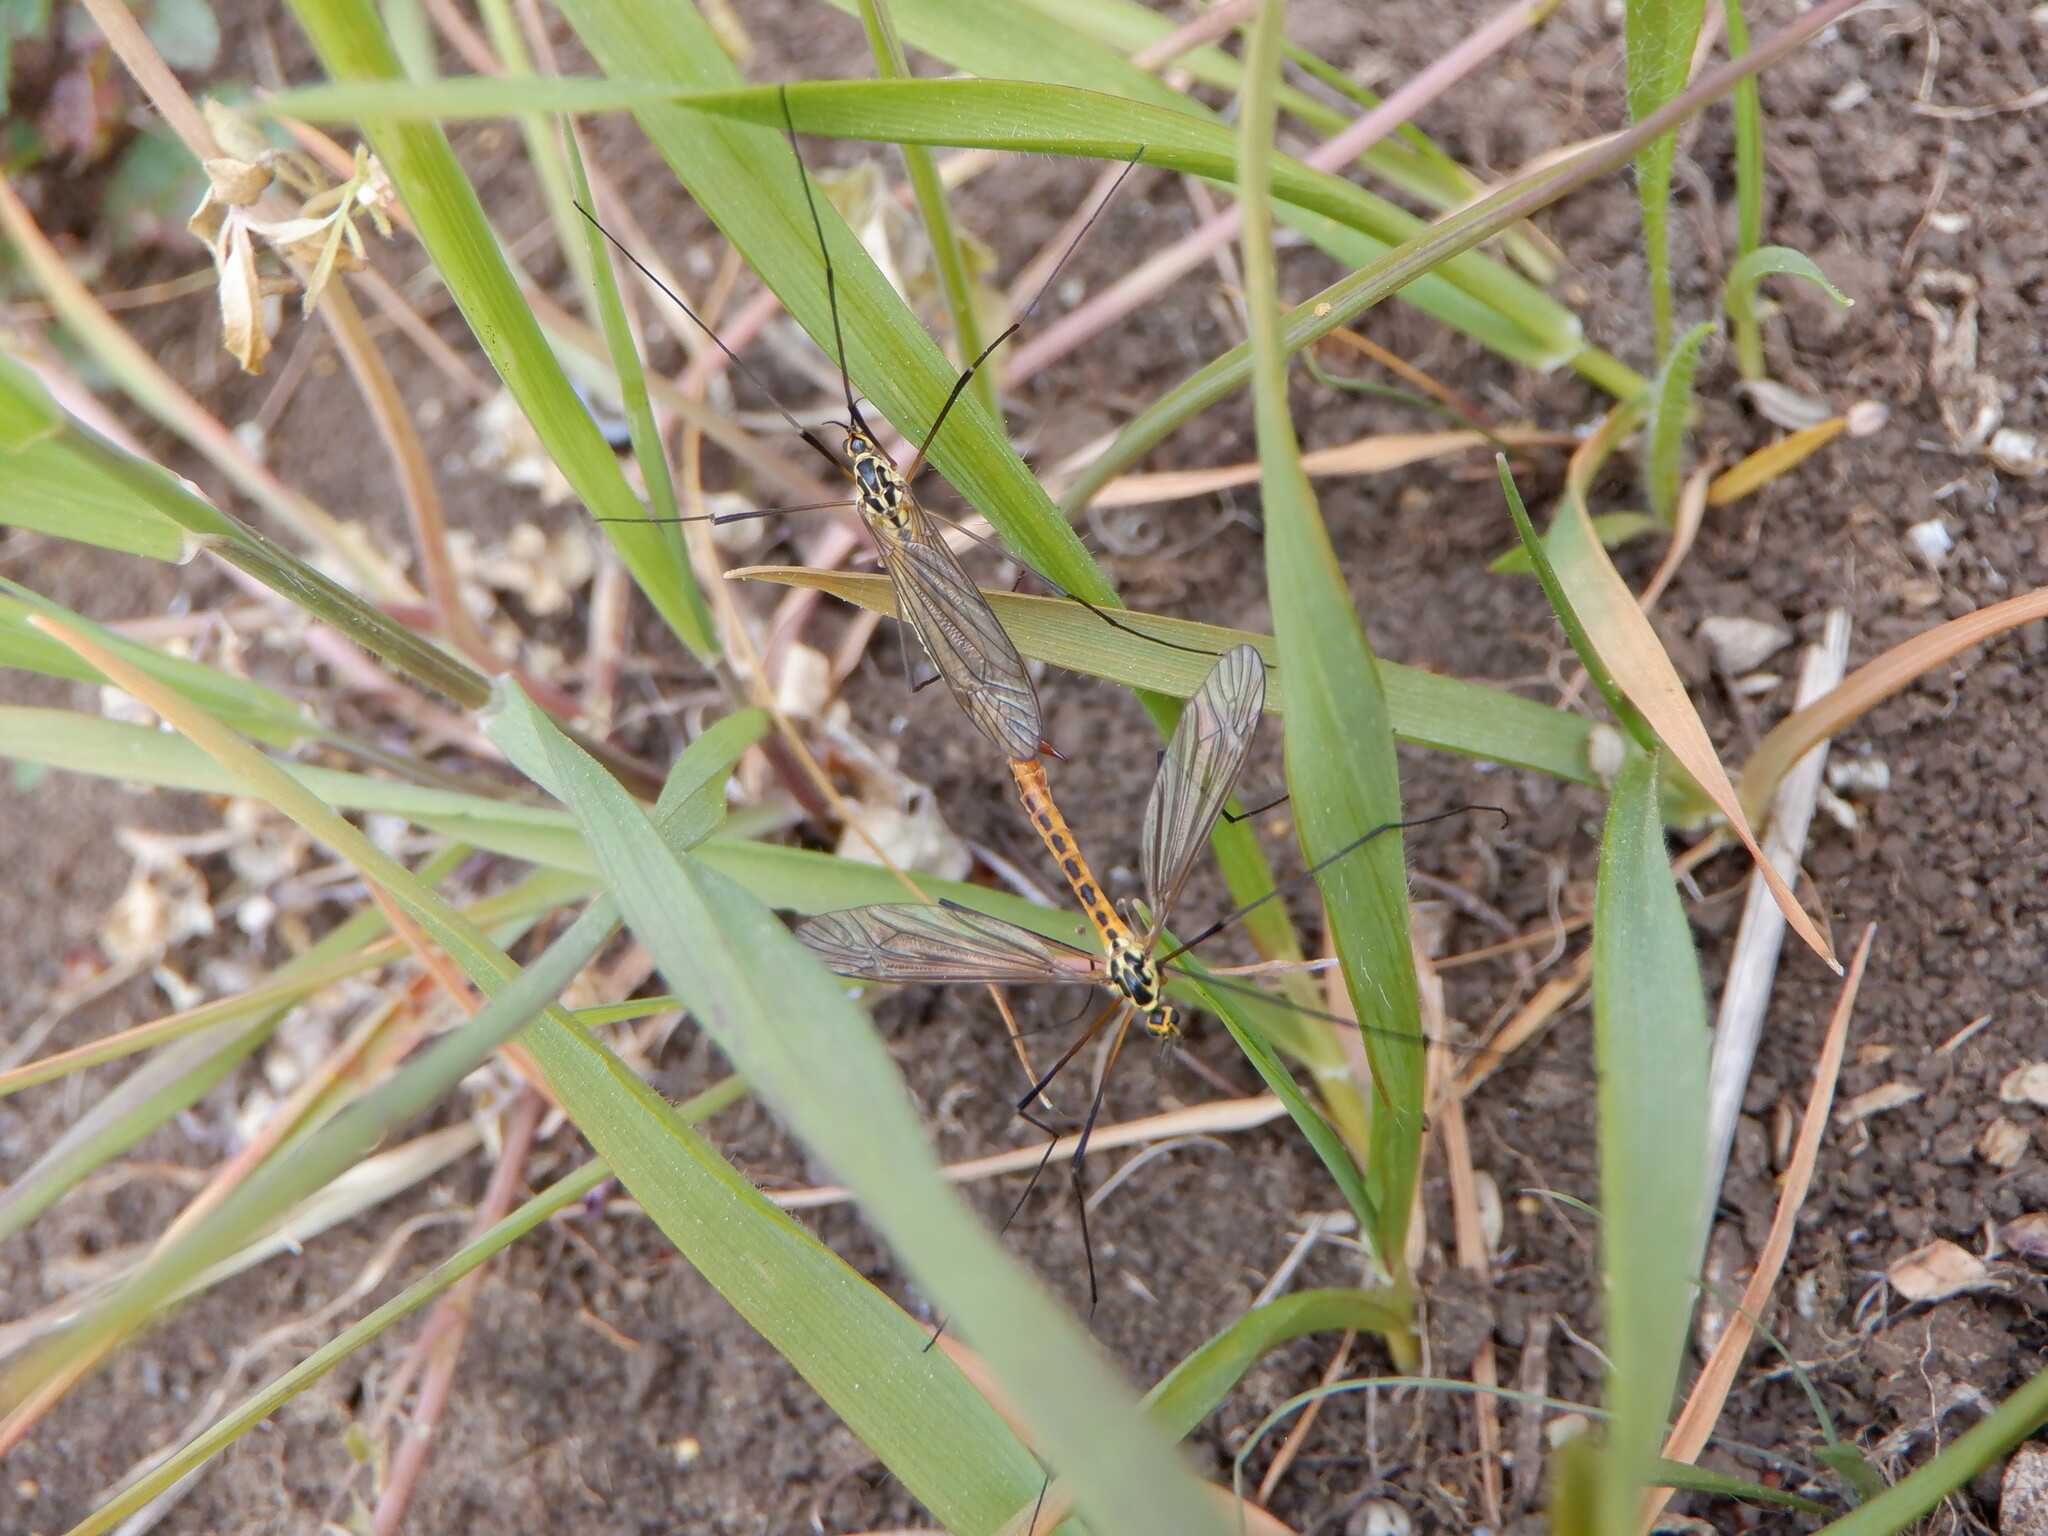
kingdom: Animalia
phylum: Arthropoda
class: Insecta
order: Diptera
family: Tipulidae
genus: Nephrotoma
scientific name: Nephrotoma flavescens
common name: Tiger cranefly
